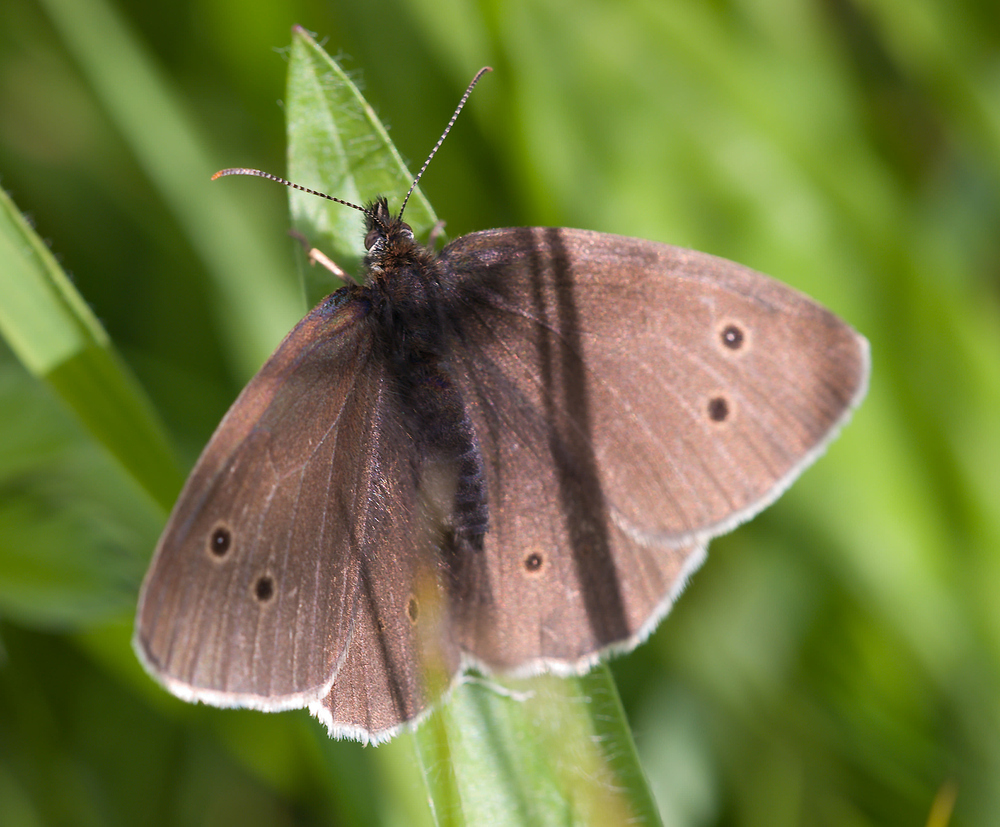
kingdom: Animalia
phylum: Arthropoda
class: Insecta
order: Lepidoptera
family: Nymphalidae
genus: Aphantopus
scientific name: Aphantopus hyperantus
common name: Ringlet
